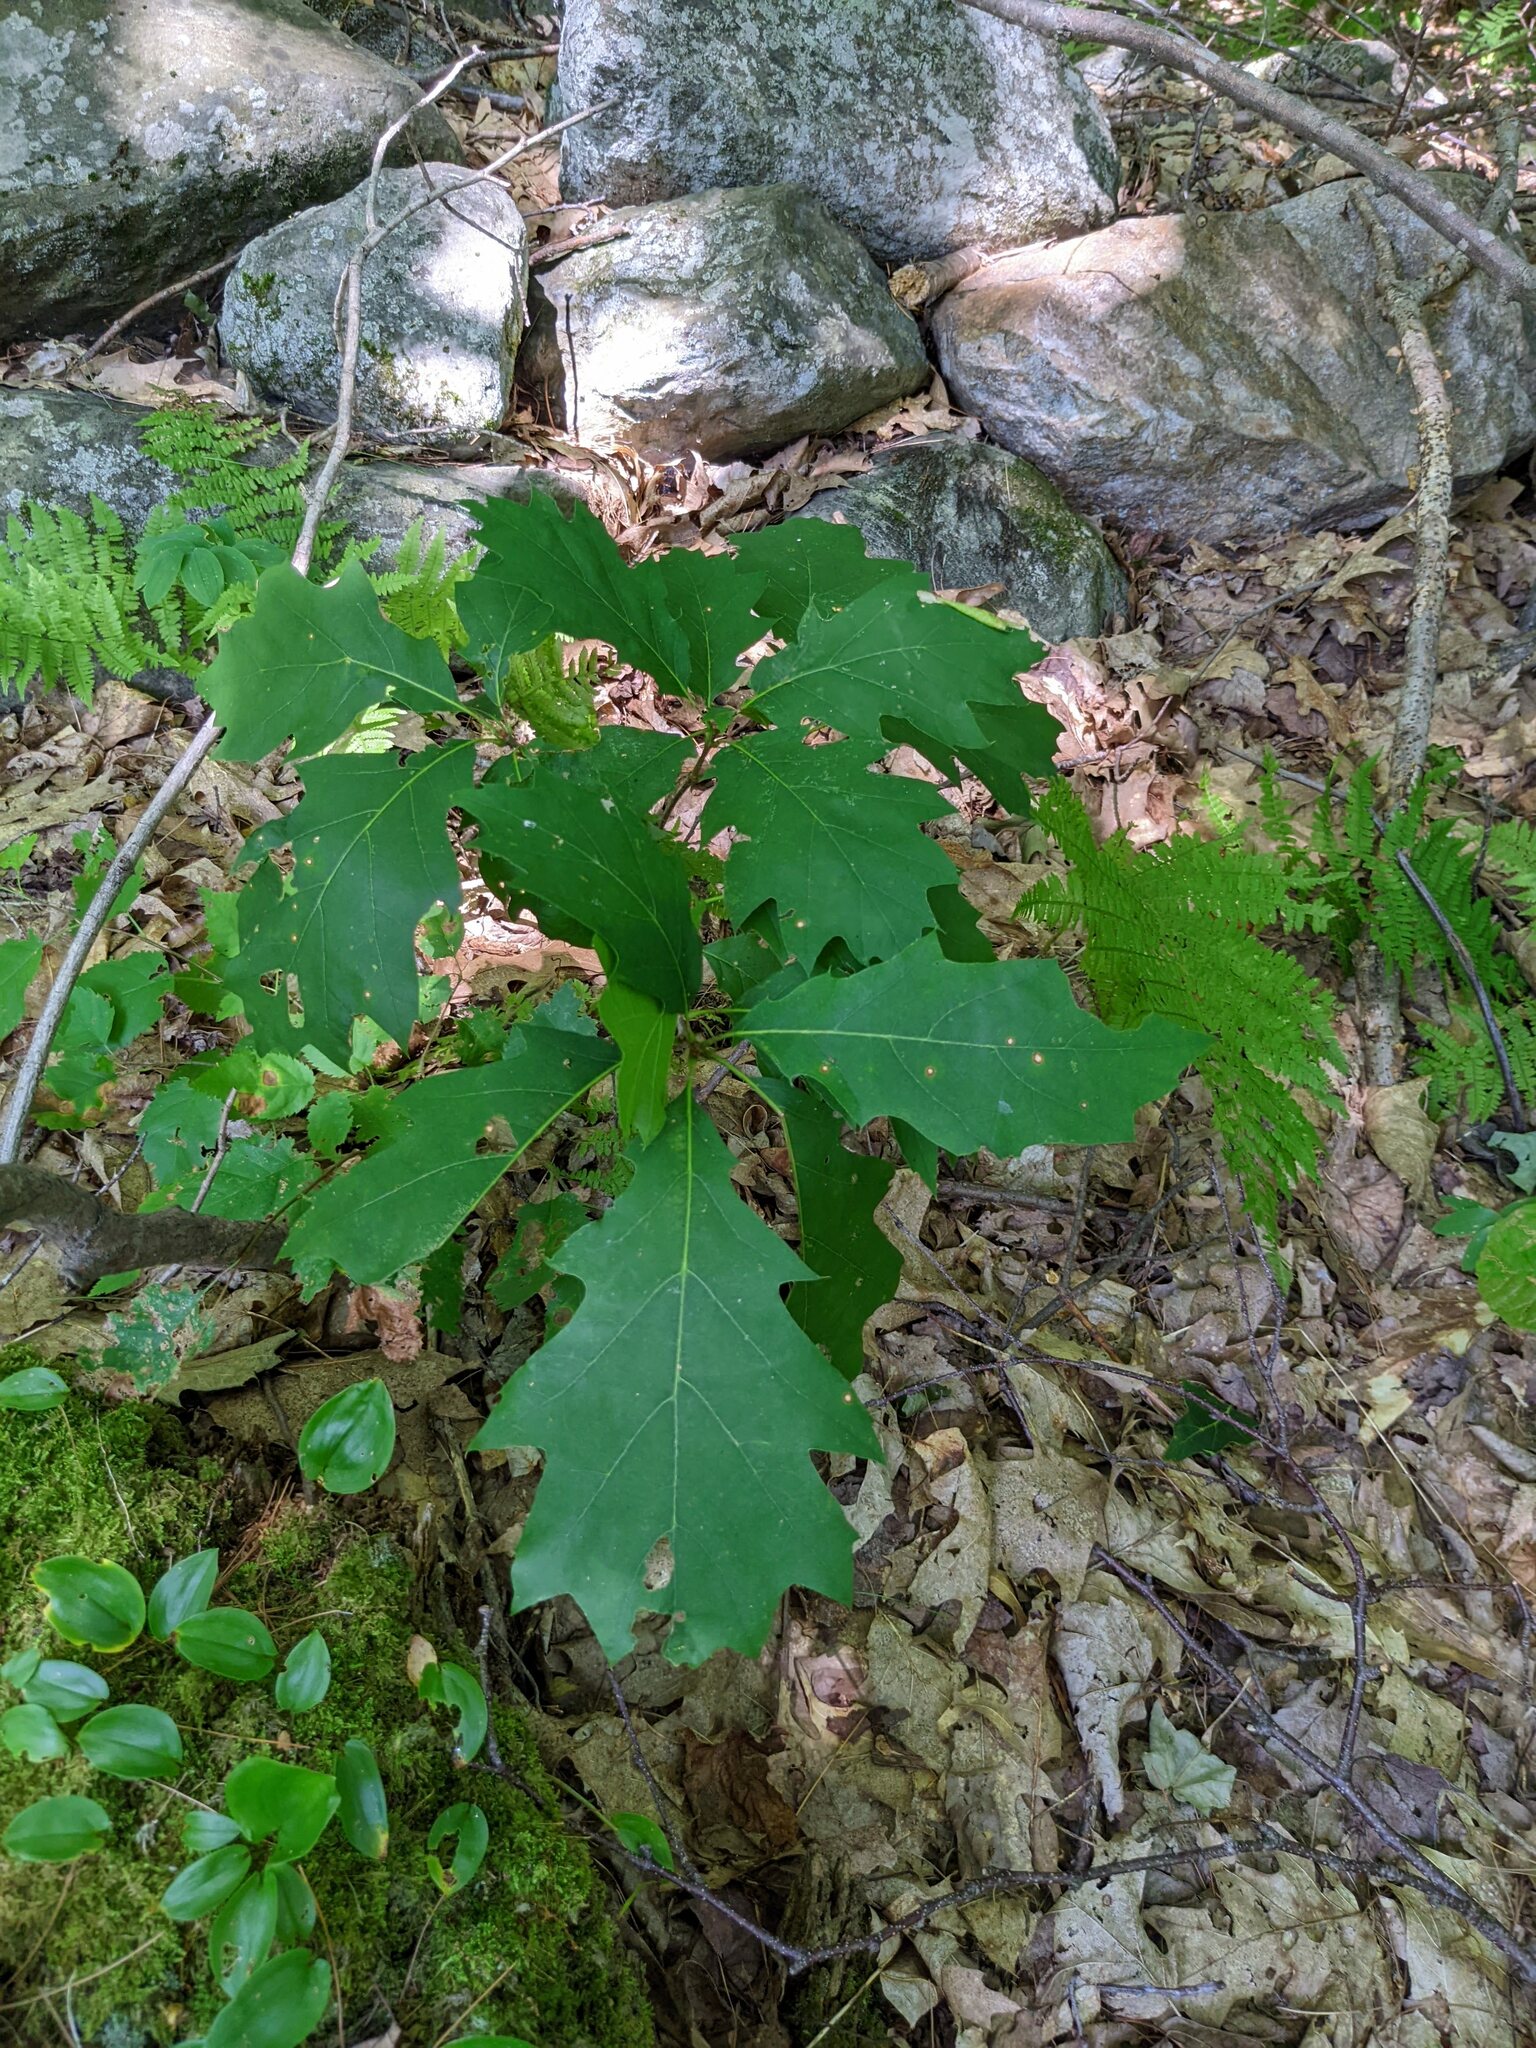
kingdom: Plantae
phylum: Tracheophyta
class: Magnoliopsida
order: Fagales
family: Fagaceae
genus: Quercus
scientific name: Quercus rubra
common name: Red oak
